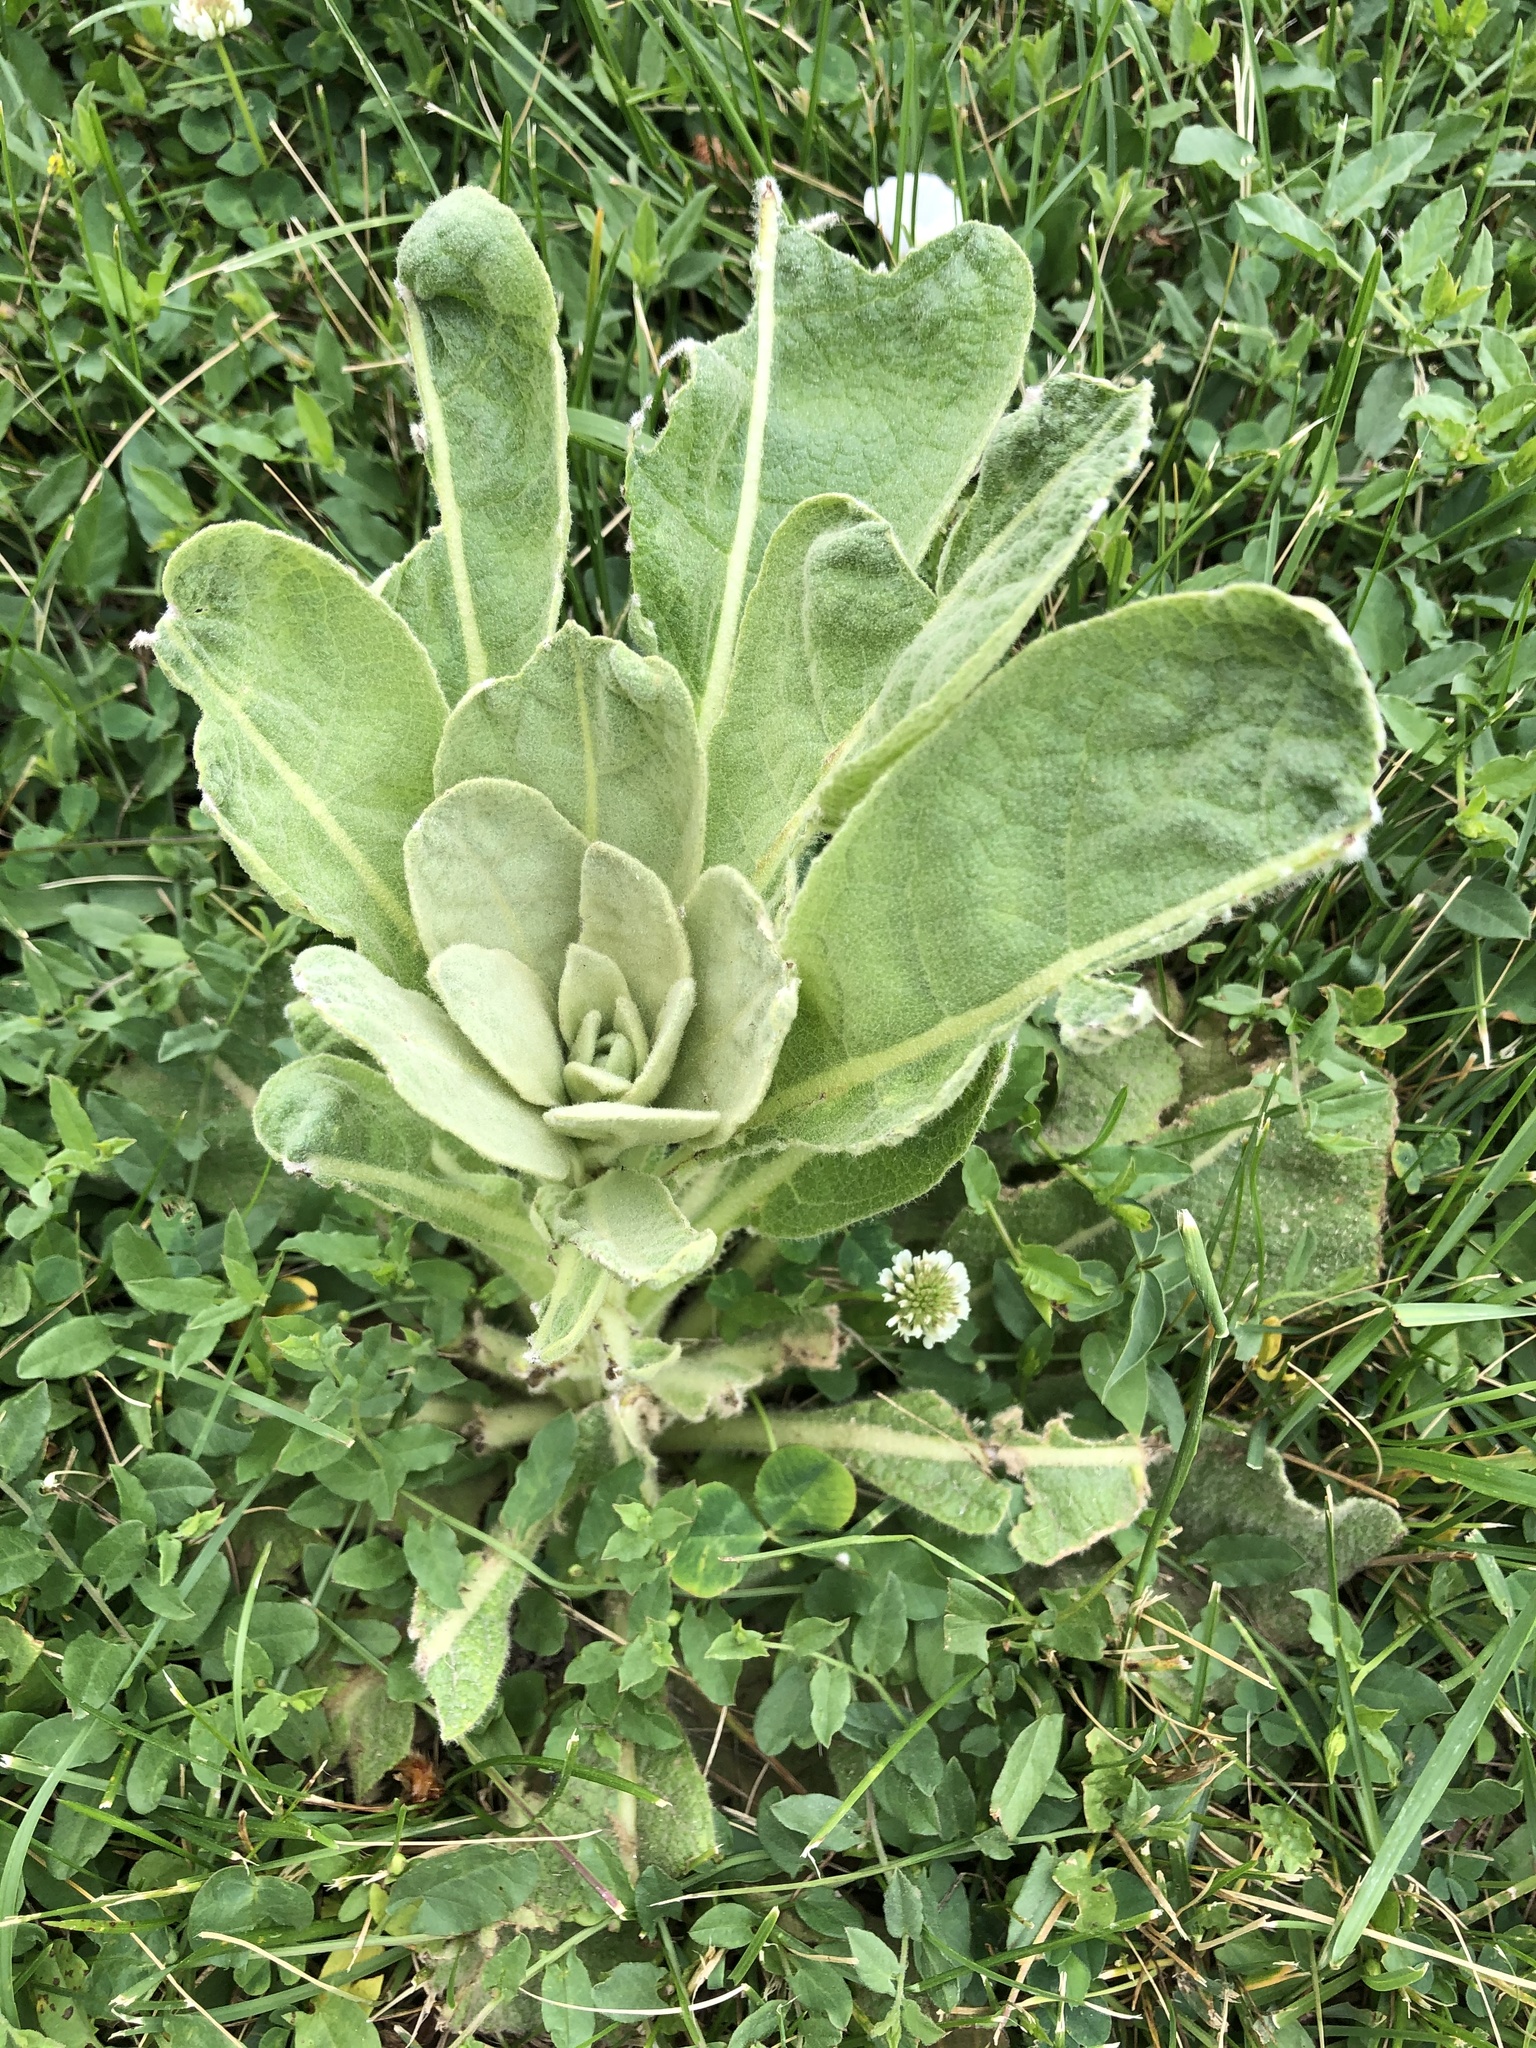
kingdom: Plantae
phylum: Tracheophyta
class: Magnoliopsida
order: Lamiales
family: Scrophulariaceae
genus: Verbascum
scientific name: Verbascum thapsus
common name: Common mullein
